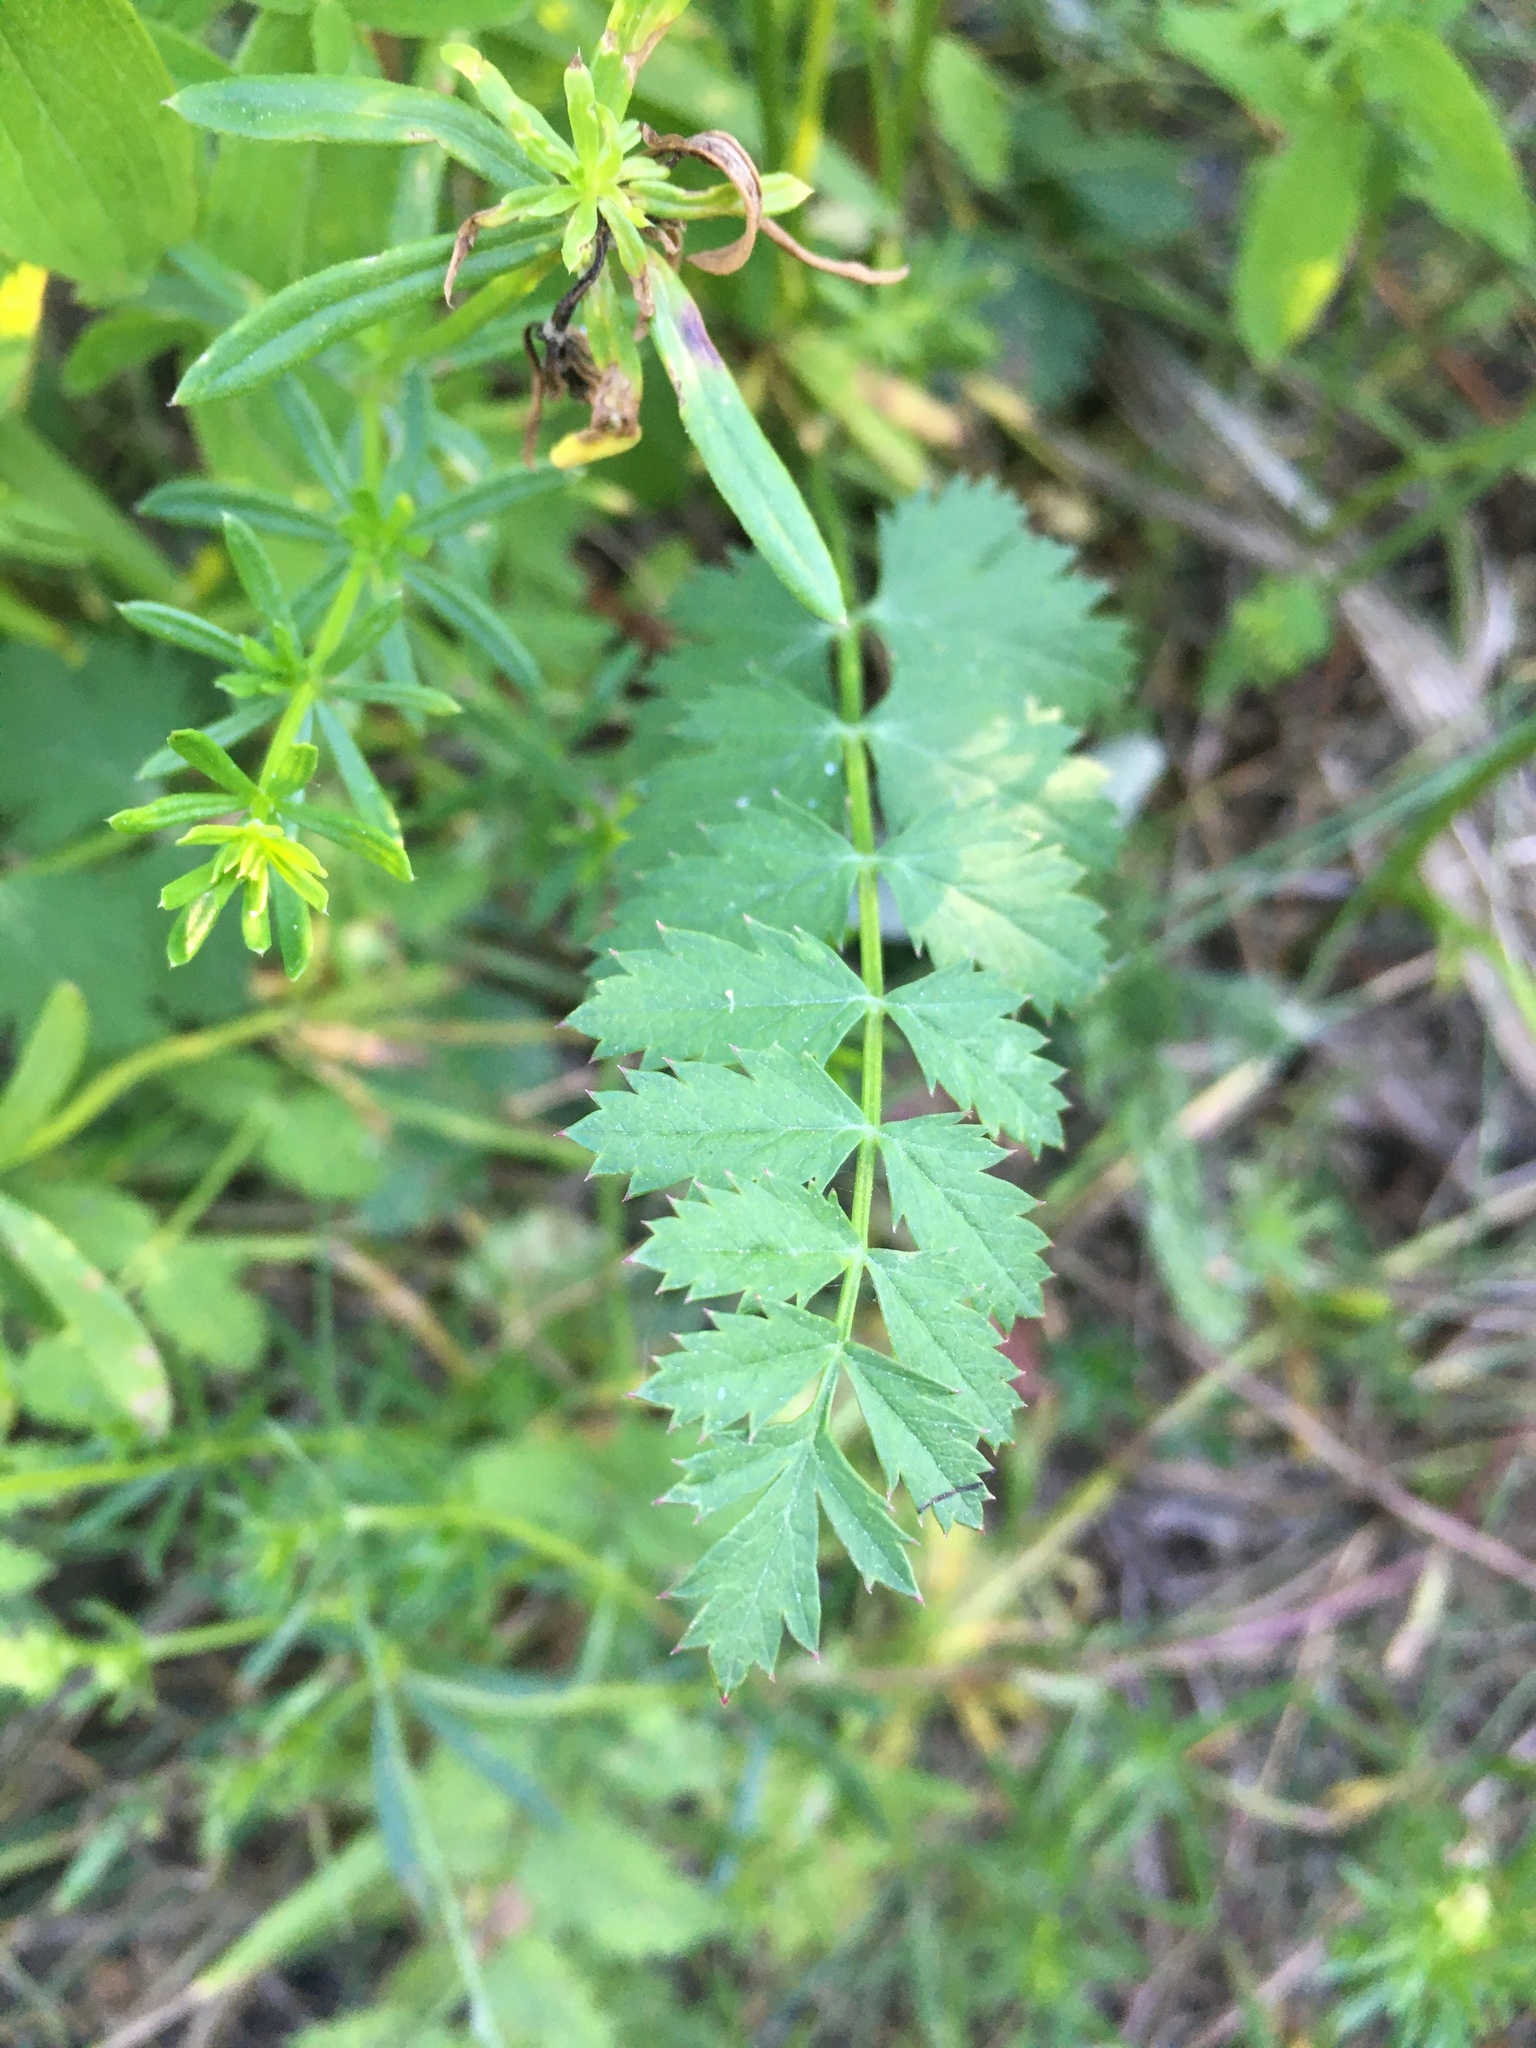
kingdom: Plantae
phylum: Tracheophyta
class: Magnoliopsida
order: Apiales
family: Apiaceae
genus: Pimpinella
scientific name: Pimpinella saxifraga
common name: Burnet-saxifrage
